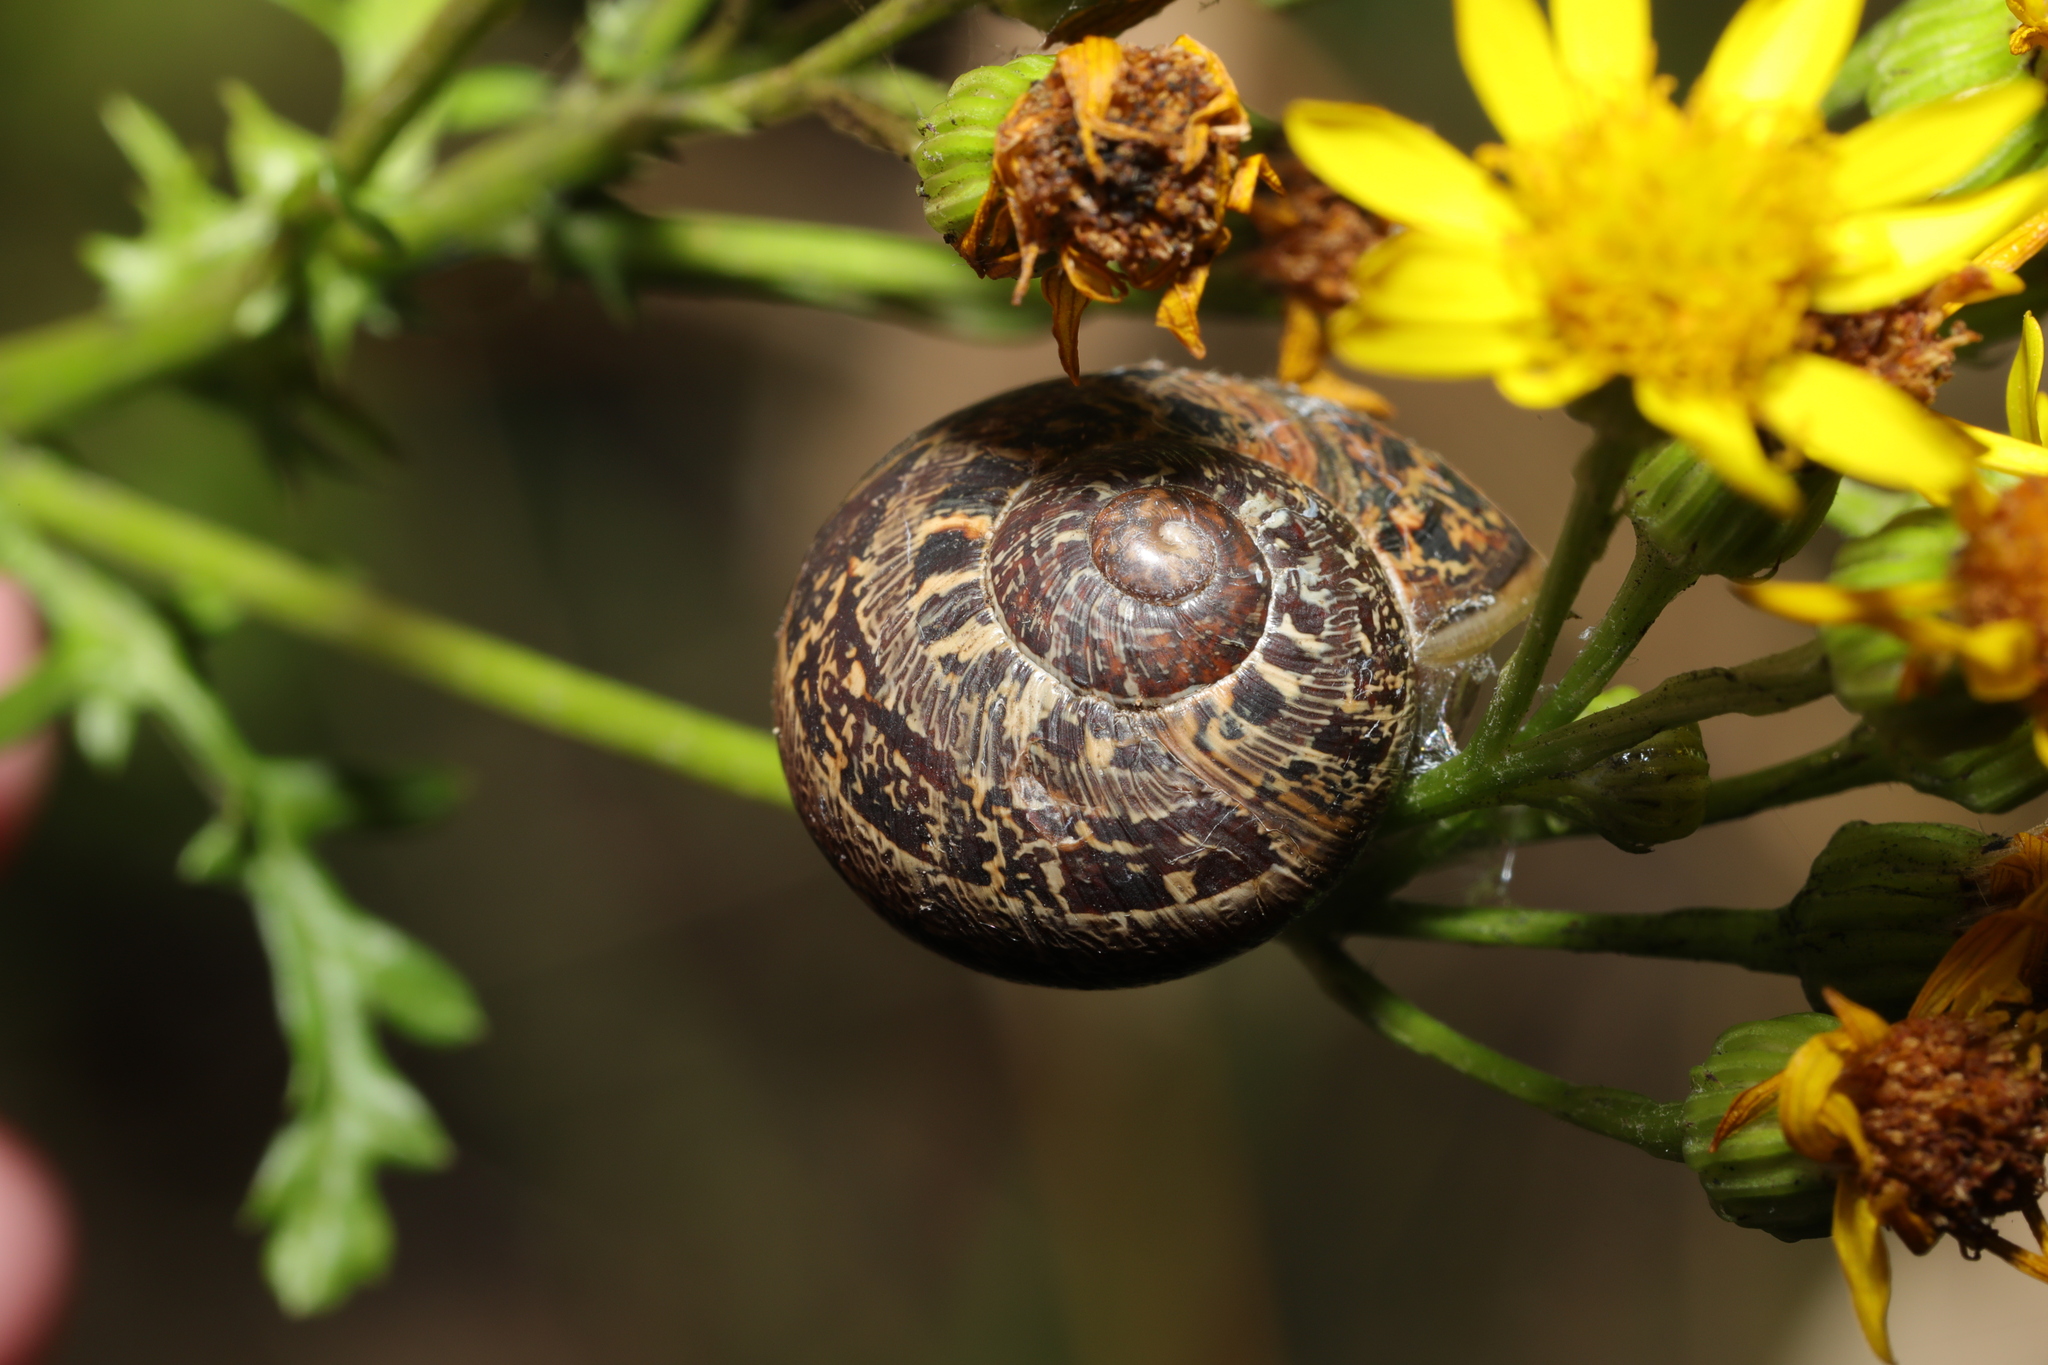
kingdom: Animalia
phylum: Mollusca
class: Gastropoda
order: Stylommatophora
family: Helicidae
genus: Cornu
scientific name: Cornu aspersum
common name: Brown garden snail
